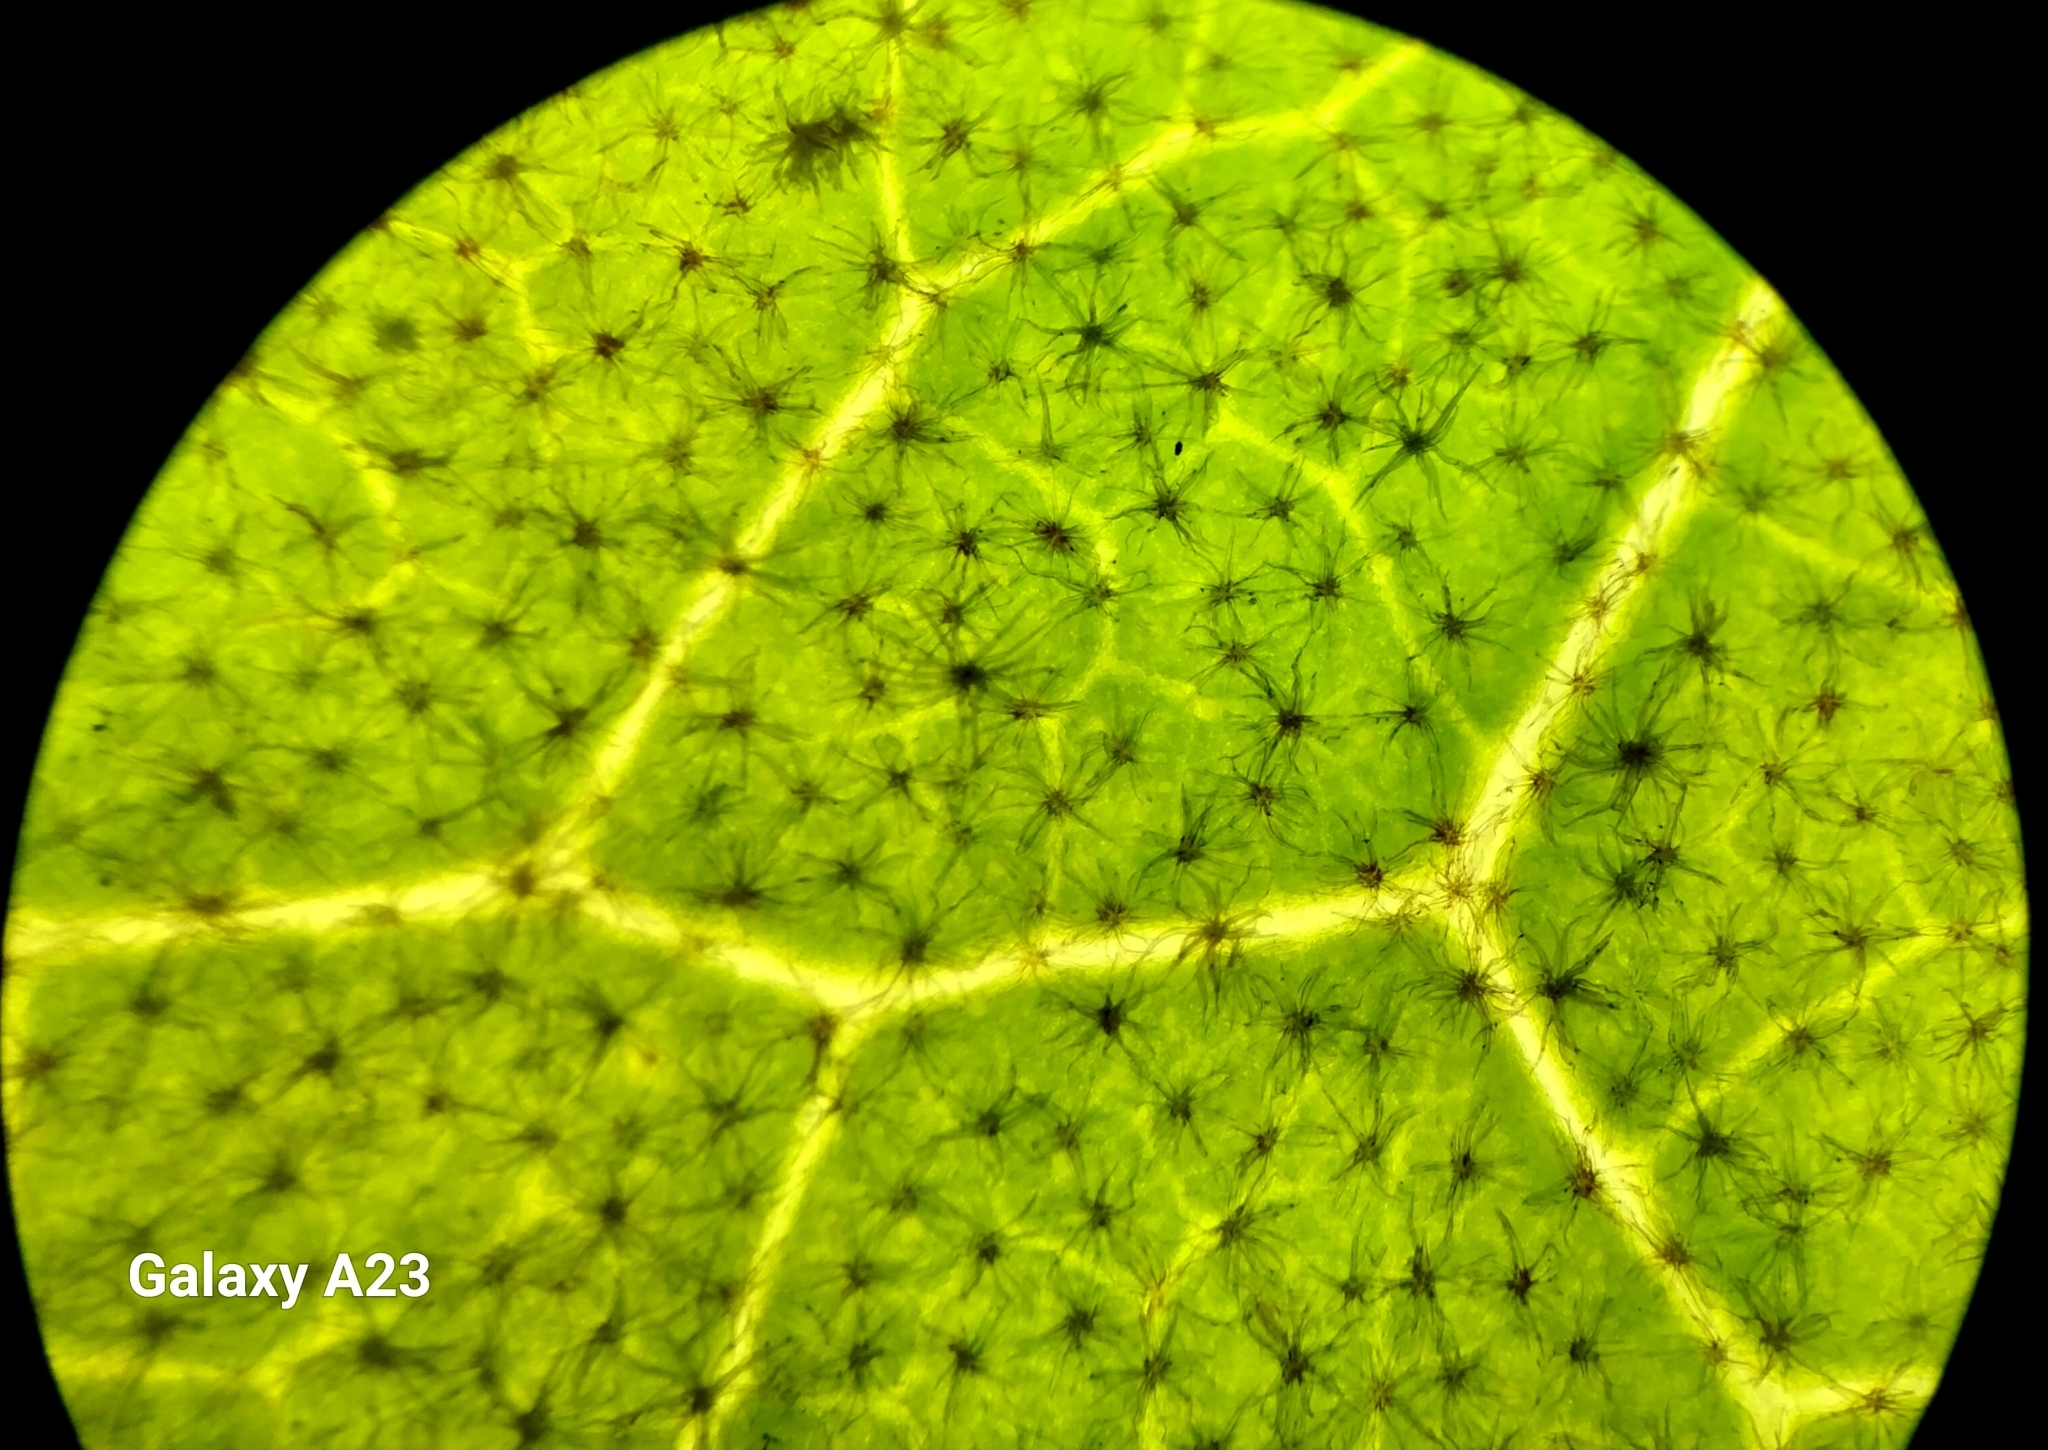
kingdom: Plantae
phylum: Tracheophyta
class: Magnoliopsida
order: Malpighiales
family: Euphorbiaceae
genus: Aleurites
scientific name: Aleurites moluccanus
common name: Candlenut tree
